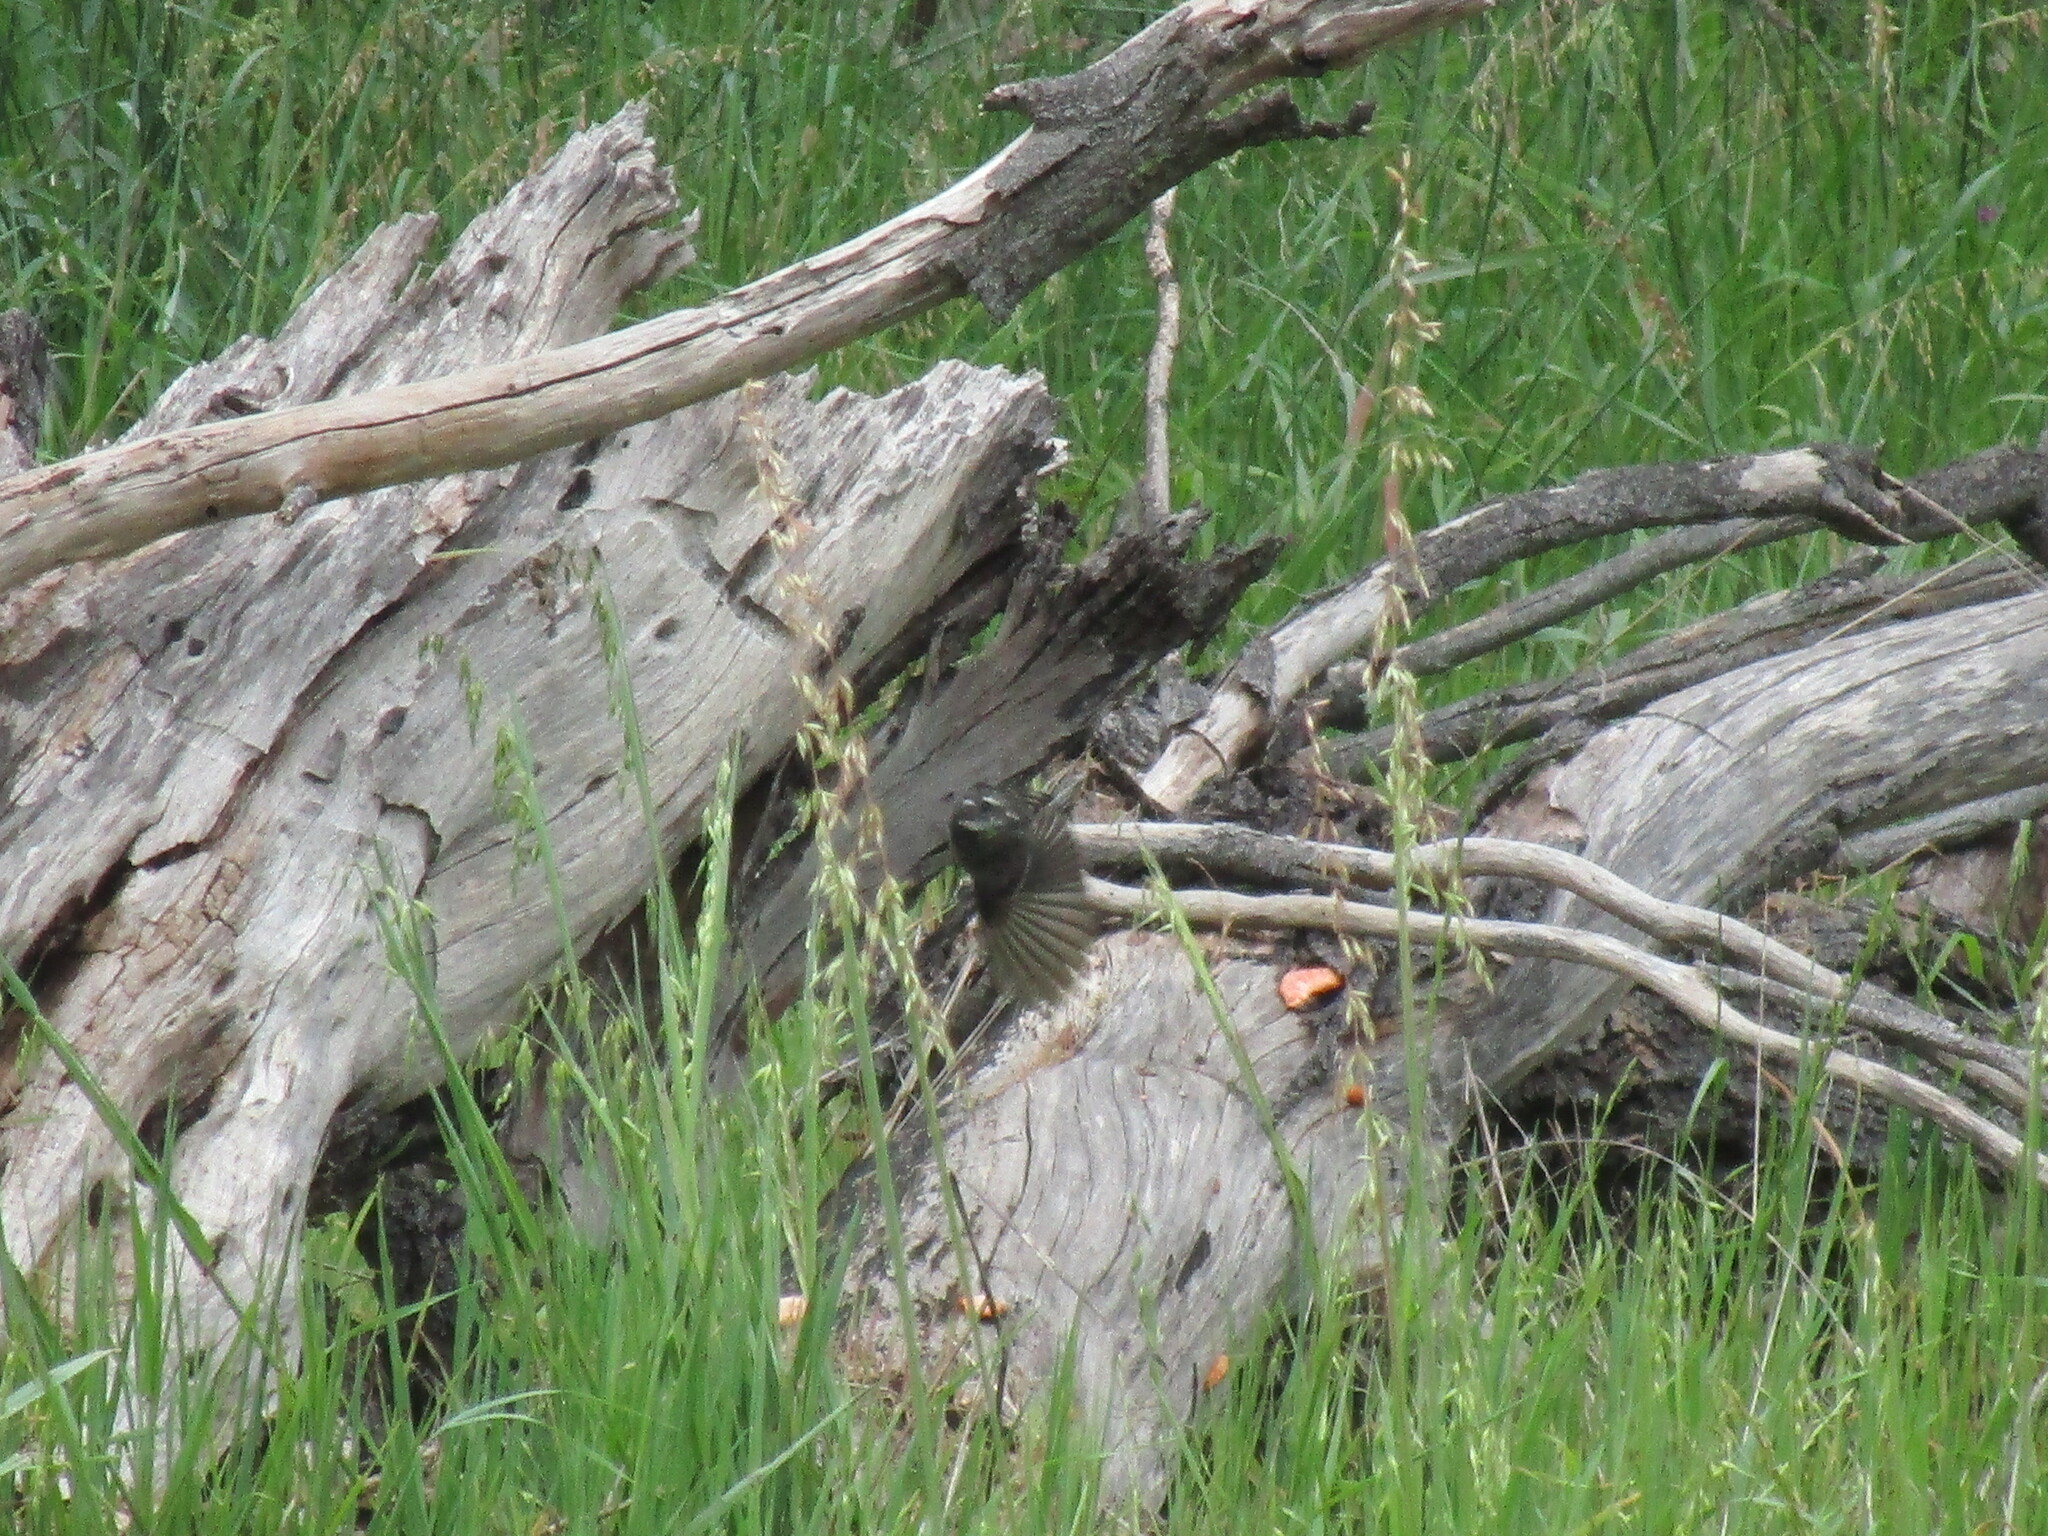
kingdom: Animalia
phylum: Chordata
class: Aves
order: Passeriformes
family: Rhipiduridae
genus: Rhipidura
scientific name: Rhipidura albiscapa
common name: Grey fantail
